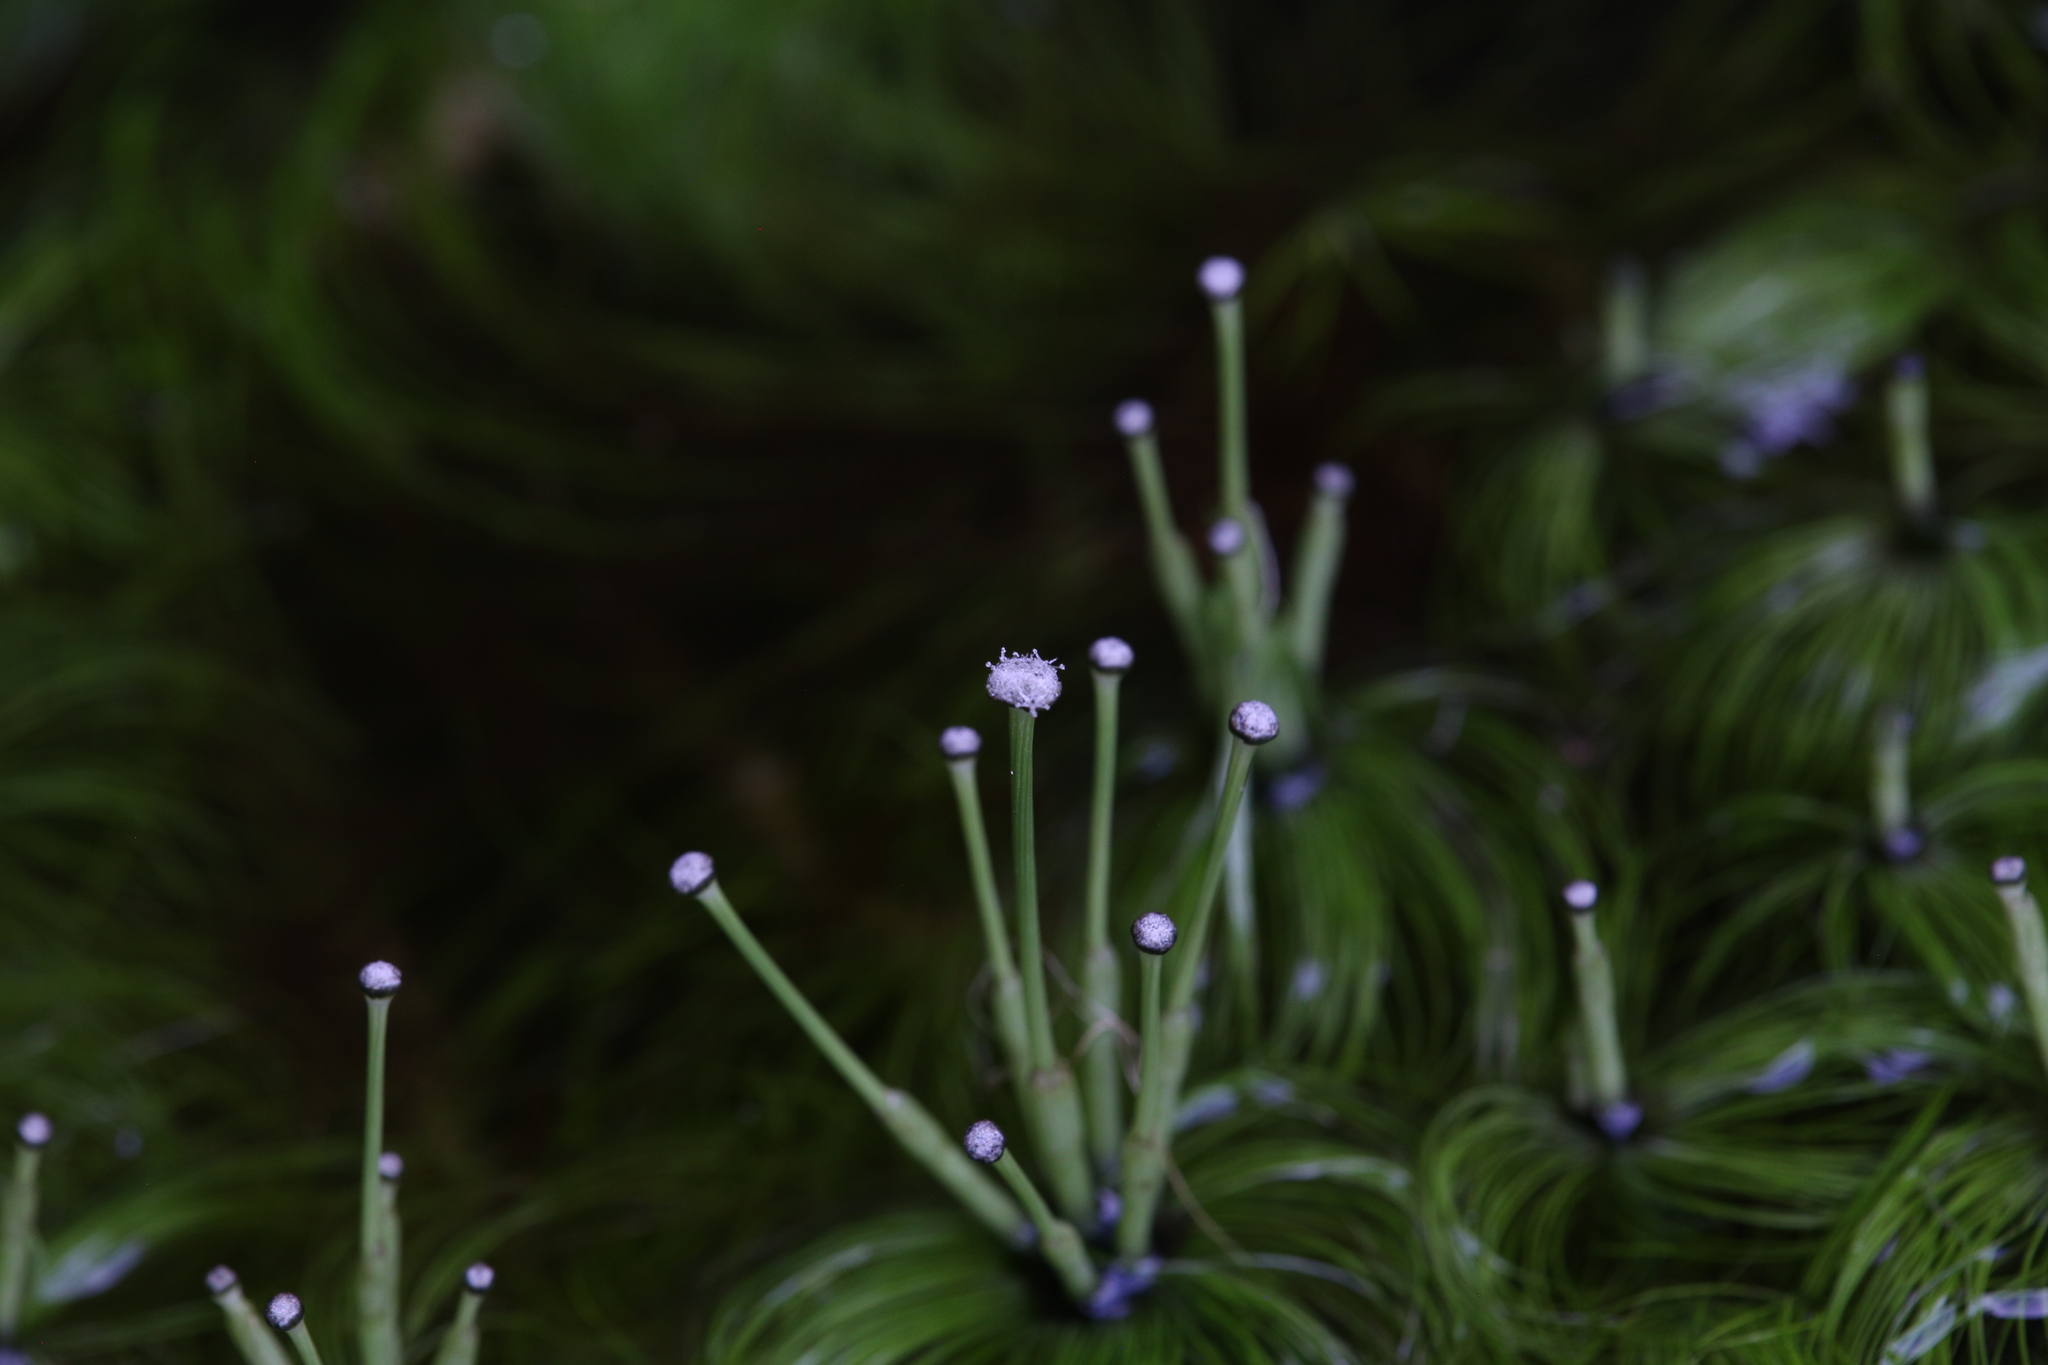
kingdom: Plantae
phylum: Tracheophyta
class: Liliopsida
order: Poales
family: Eriocaulaceae
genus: Eriocaulon
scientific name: Eriocaulon setaceum
